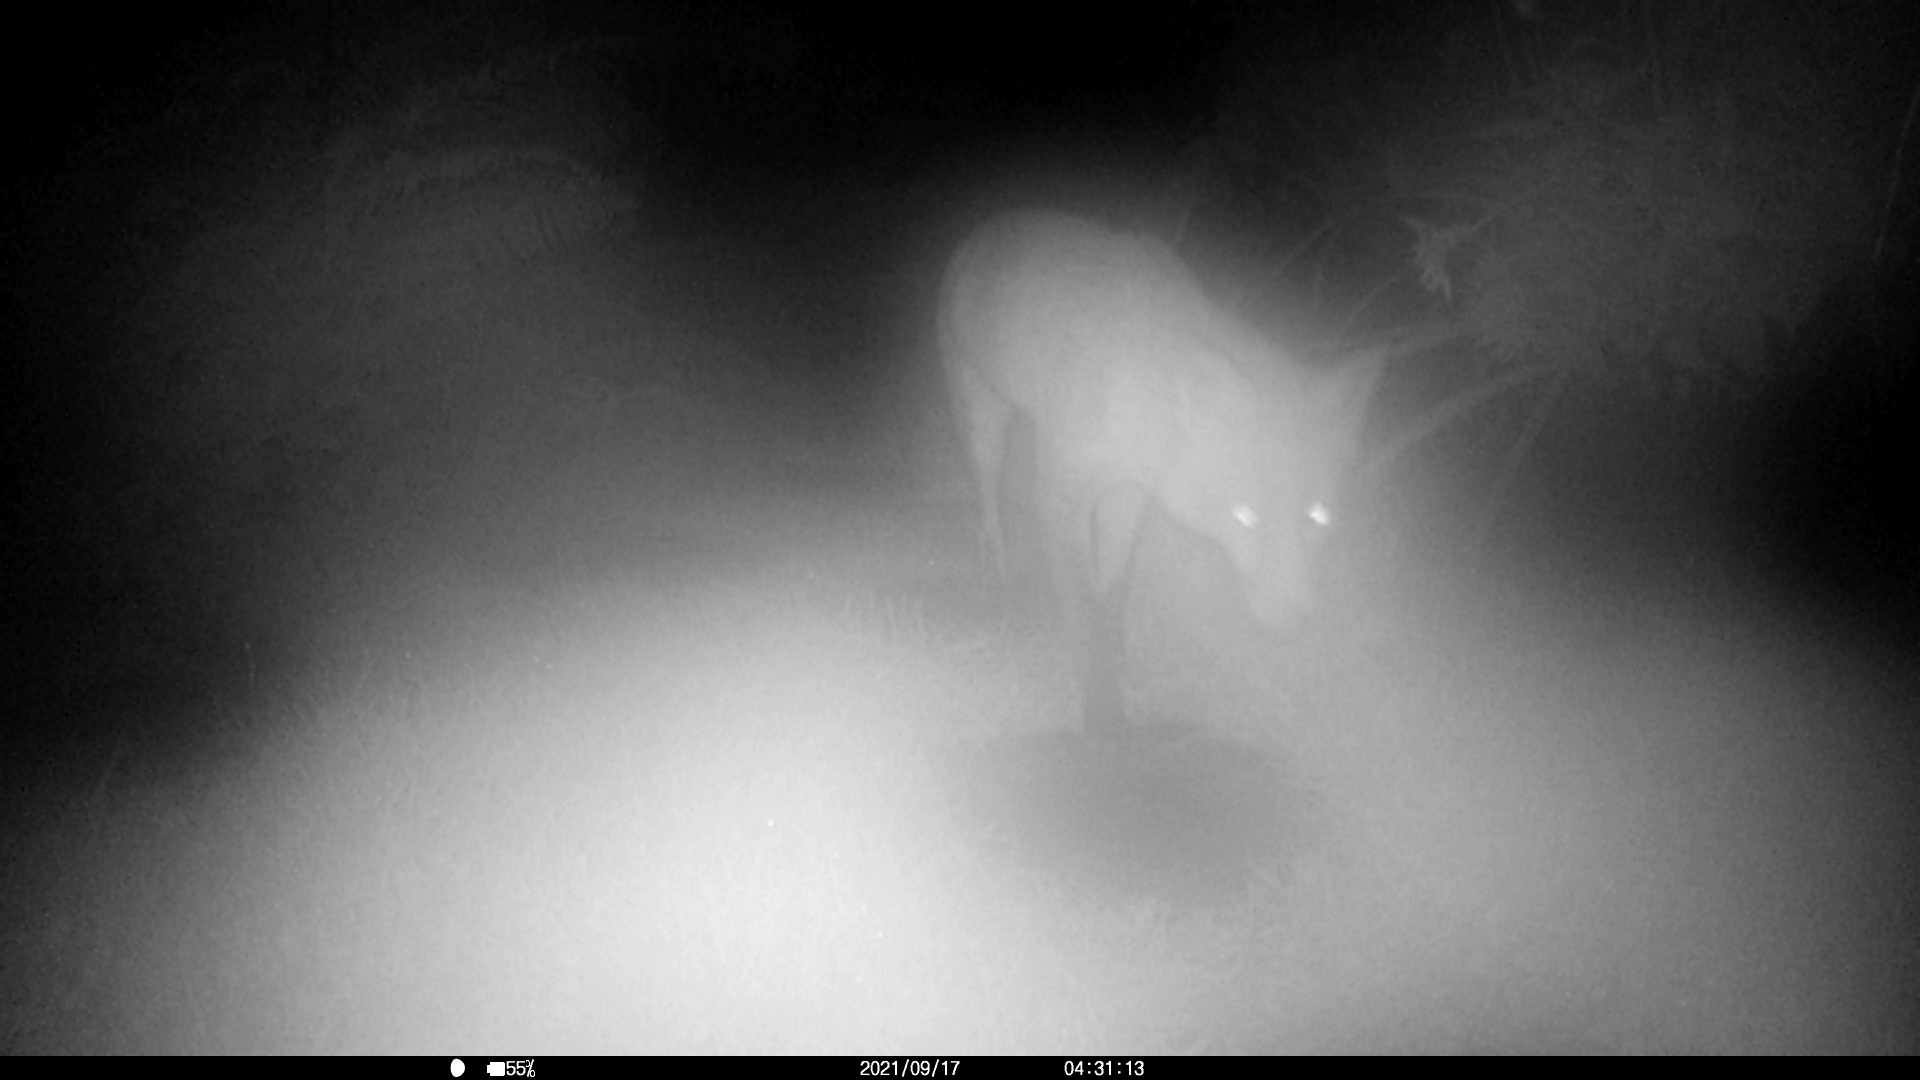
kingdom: Animalia
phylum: Chordata
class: Mammalia
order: Carnivora
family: Canidae
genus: Vulpes
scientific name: Vulpes vulpes
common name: Red fox
